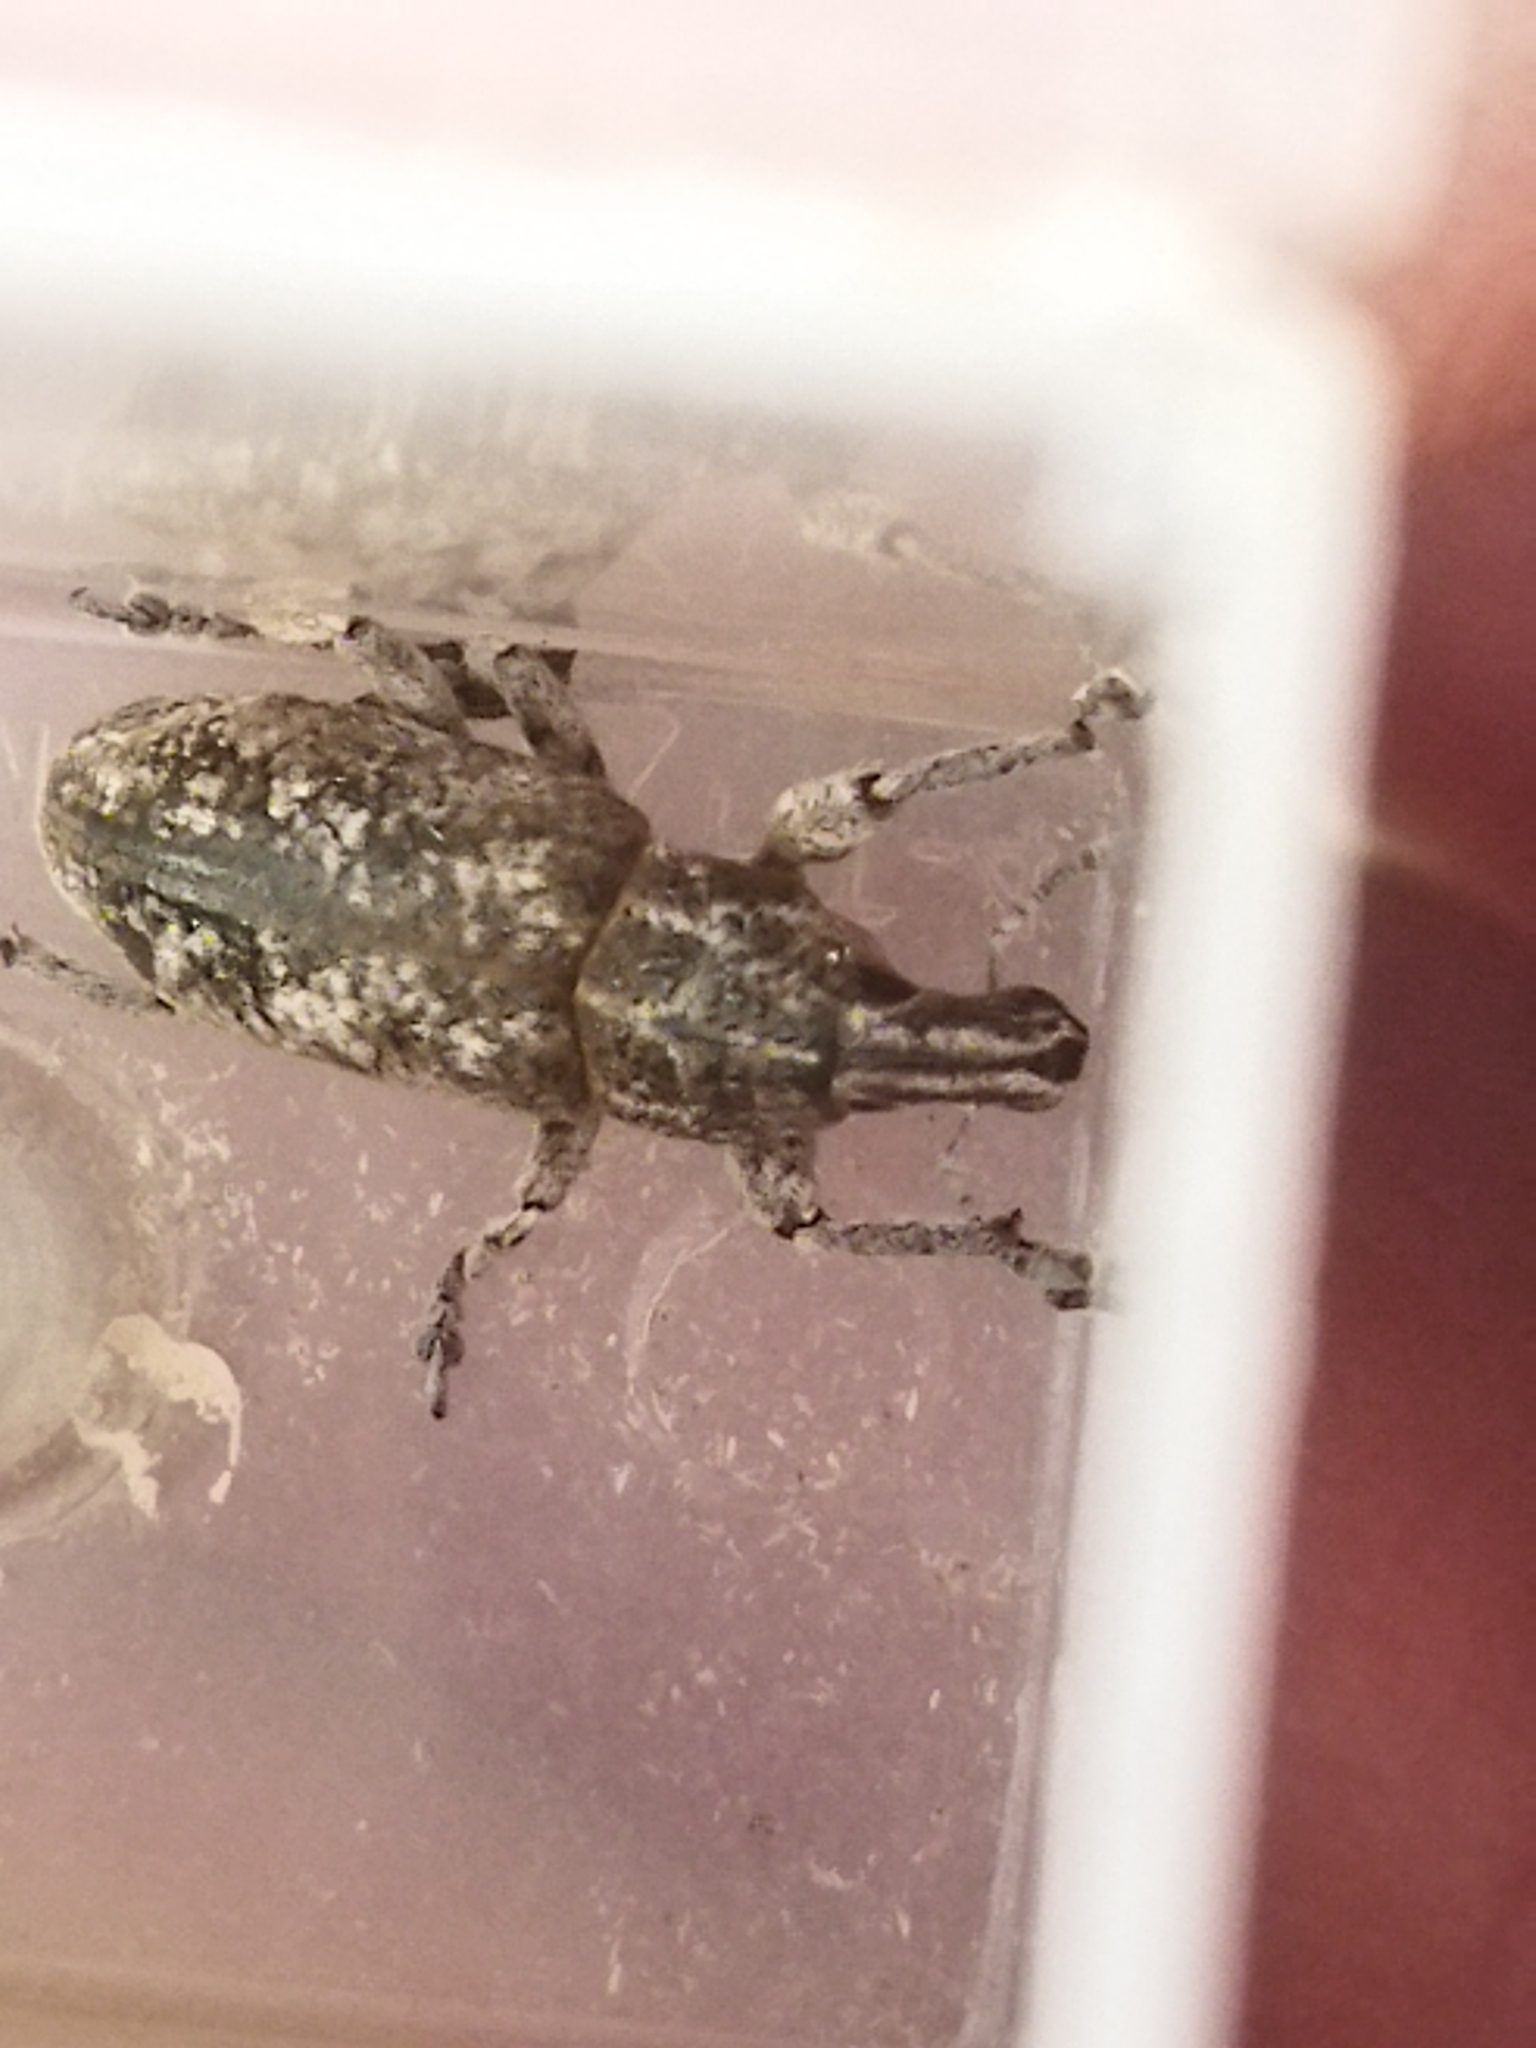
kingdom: Animalia
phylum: Arthropoda
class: Insecta
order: Coleoptera
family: Curculionidae
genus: Cyphocleonus
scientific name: Cyphocleonus
